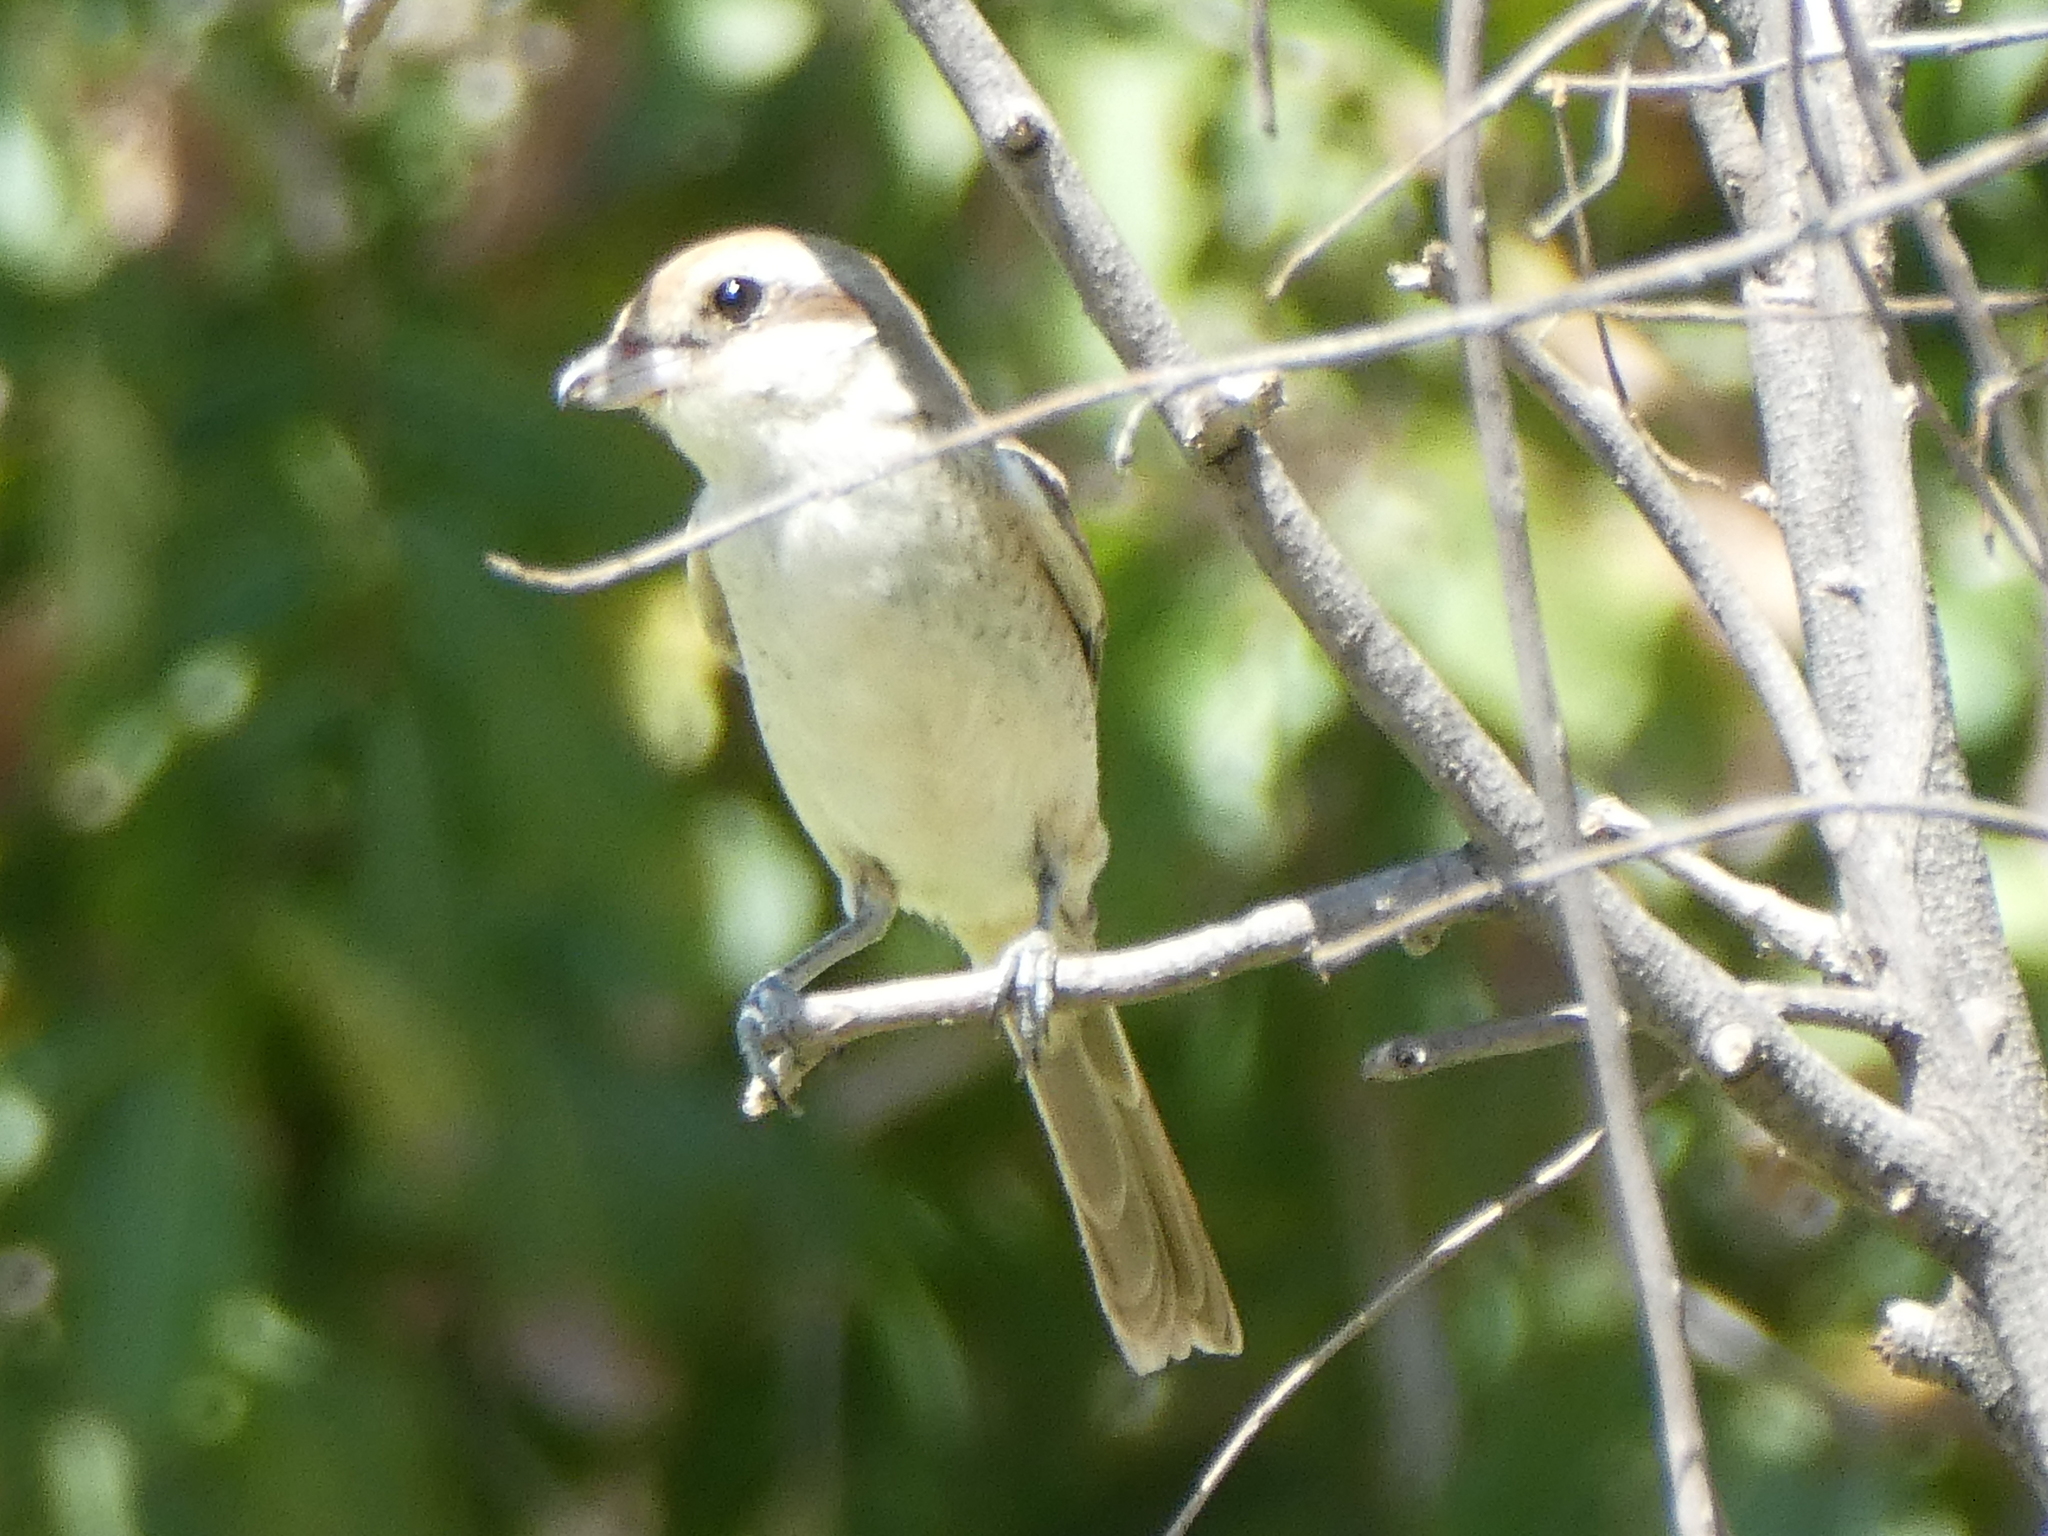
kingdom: Animalia
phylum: Chordata
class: Aves
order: Passeriformes
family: Laniidae
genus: Lanius
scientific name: Lanius cristatus
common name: Brown shrike
